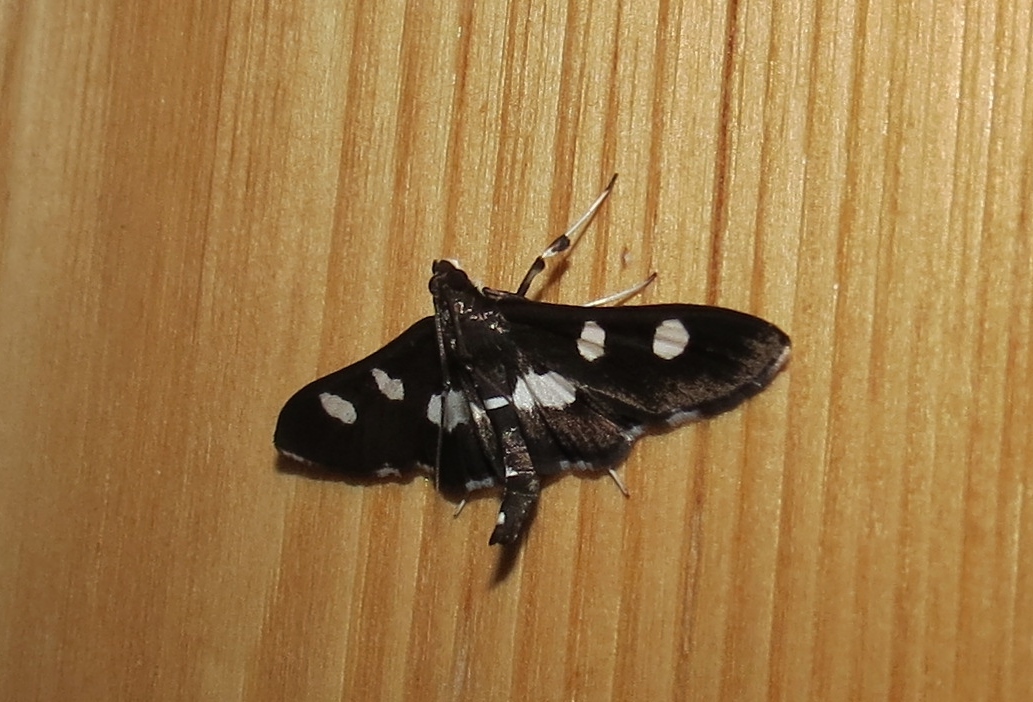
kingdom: Animalia
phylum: Arthropoda
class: Insecta
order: Lepidoptera
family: Crambidae
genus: Desmia
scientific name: Desmia
